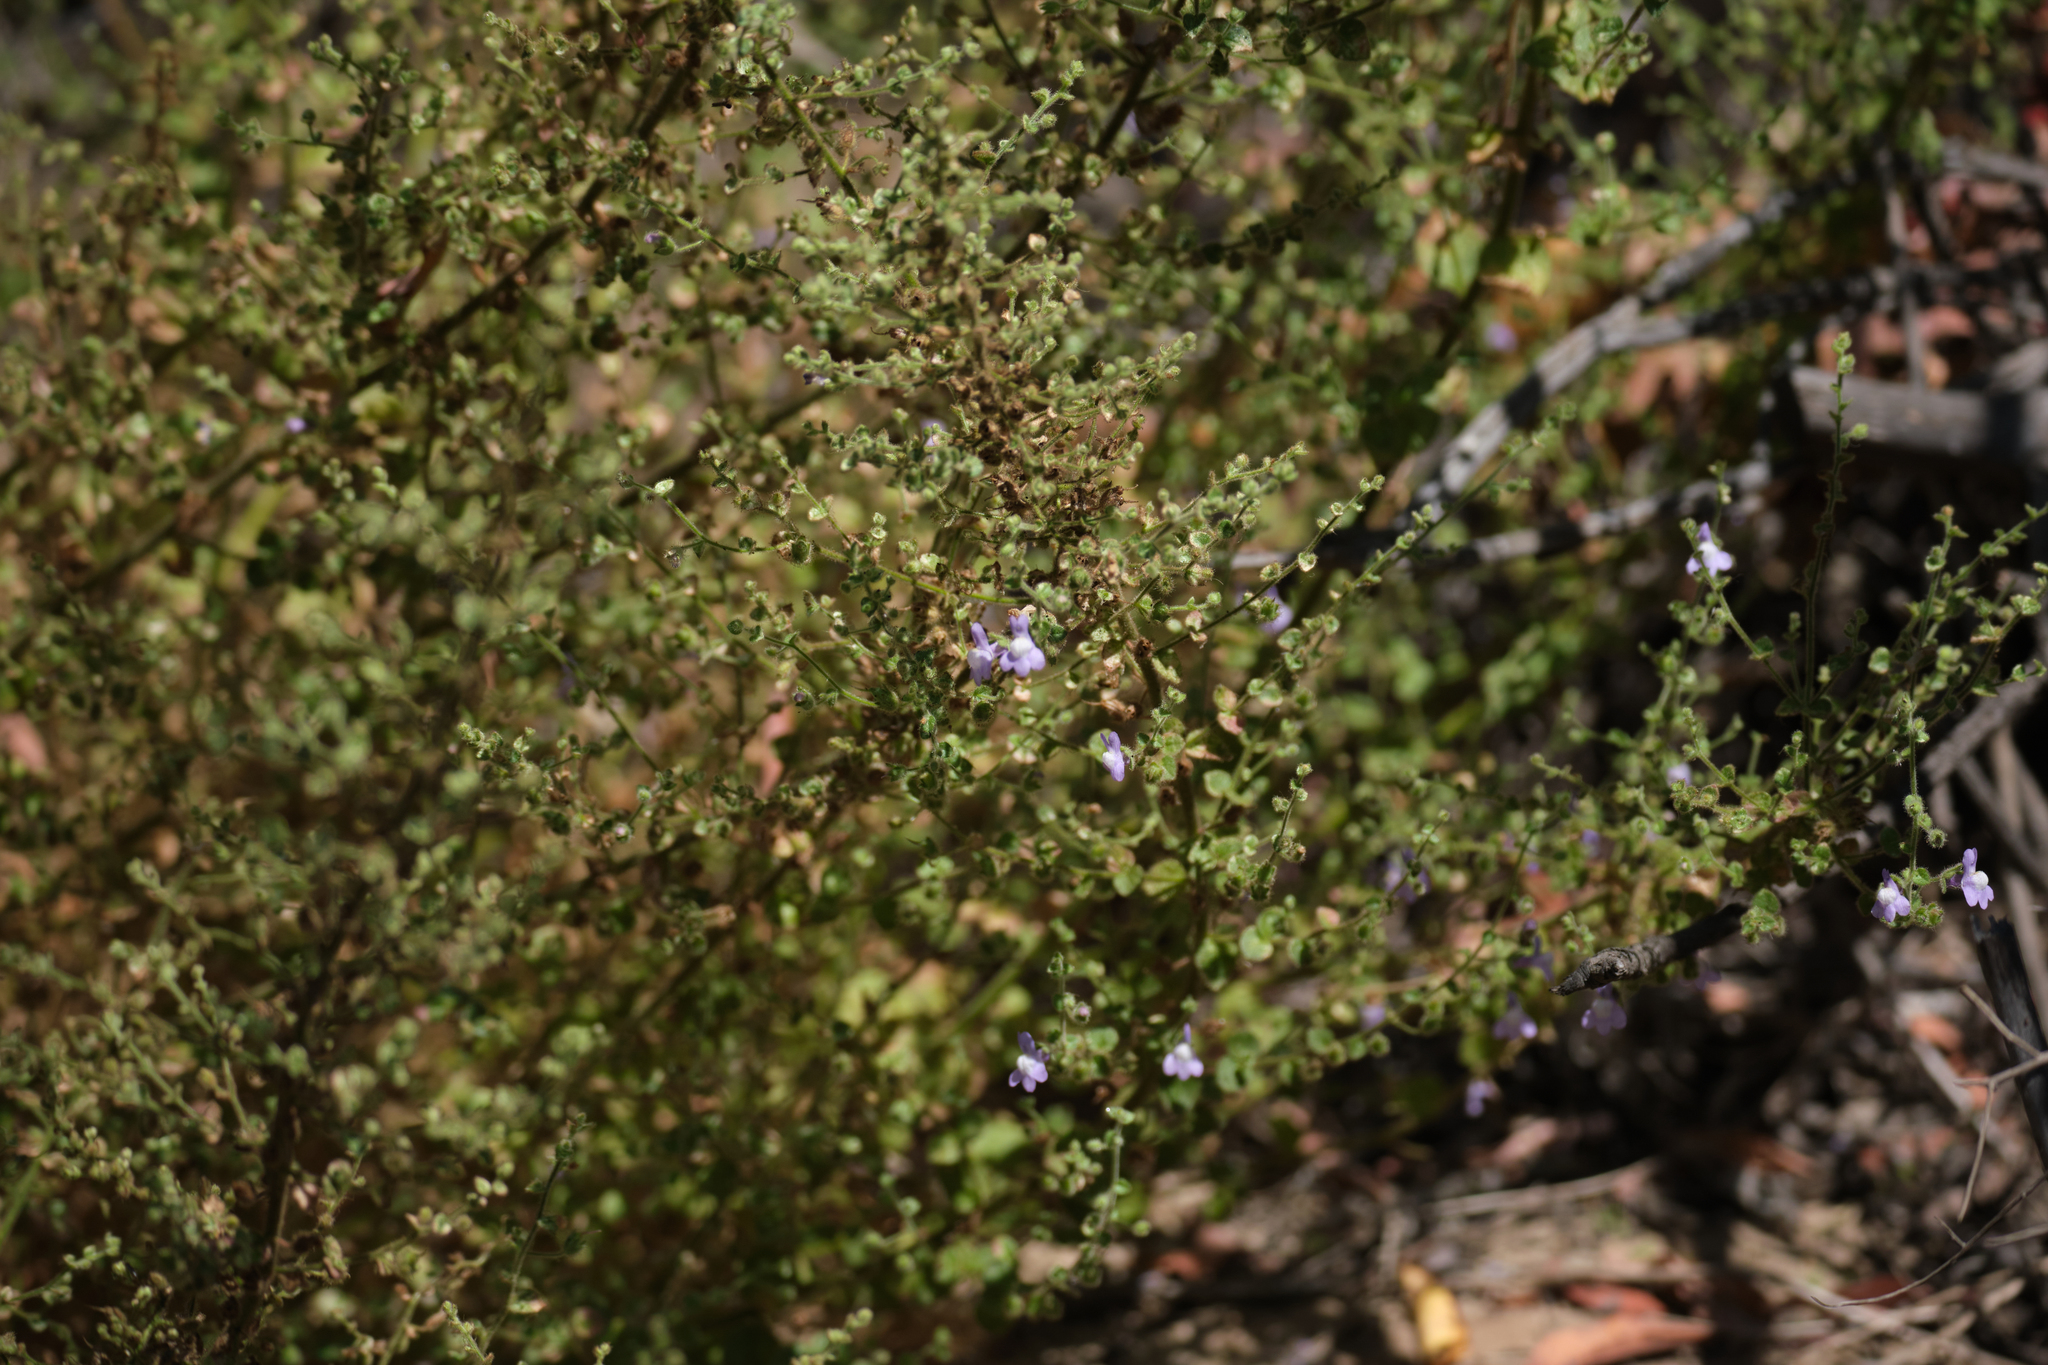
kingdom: Plantae
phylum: Tracheophyta
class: Magnoliopsida
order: Lamiales
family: Plantaginaceae
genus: Sairocarpus
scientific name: Sairocarpus nuttallianus
